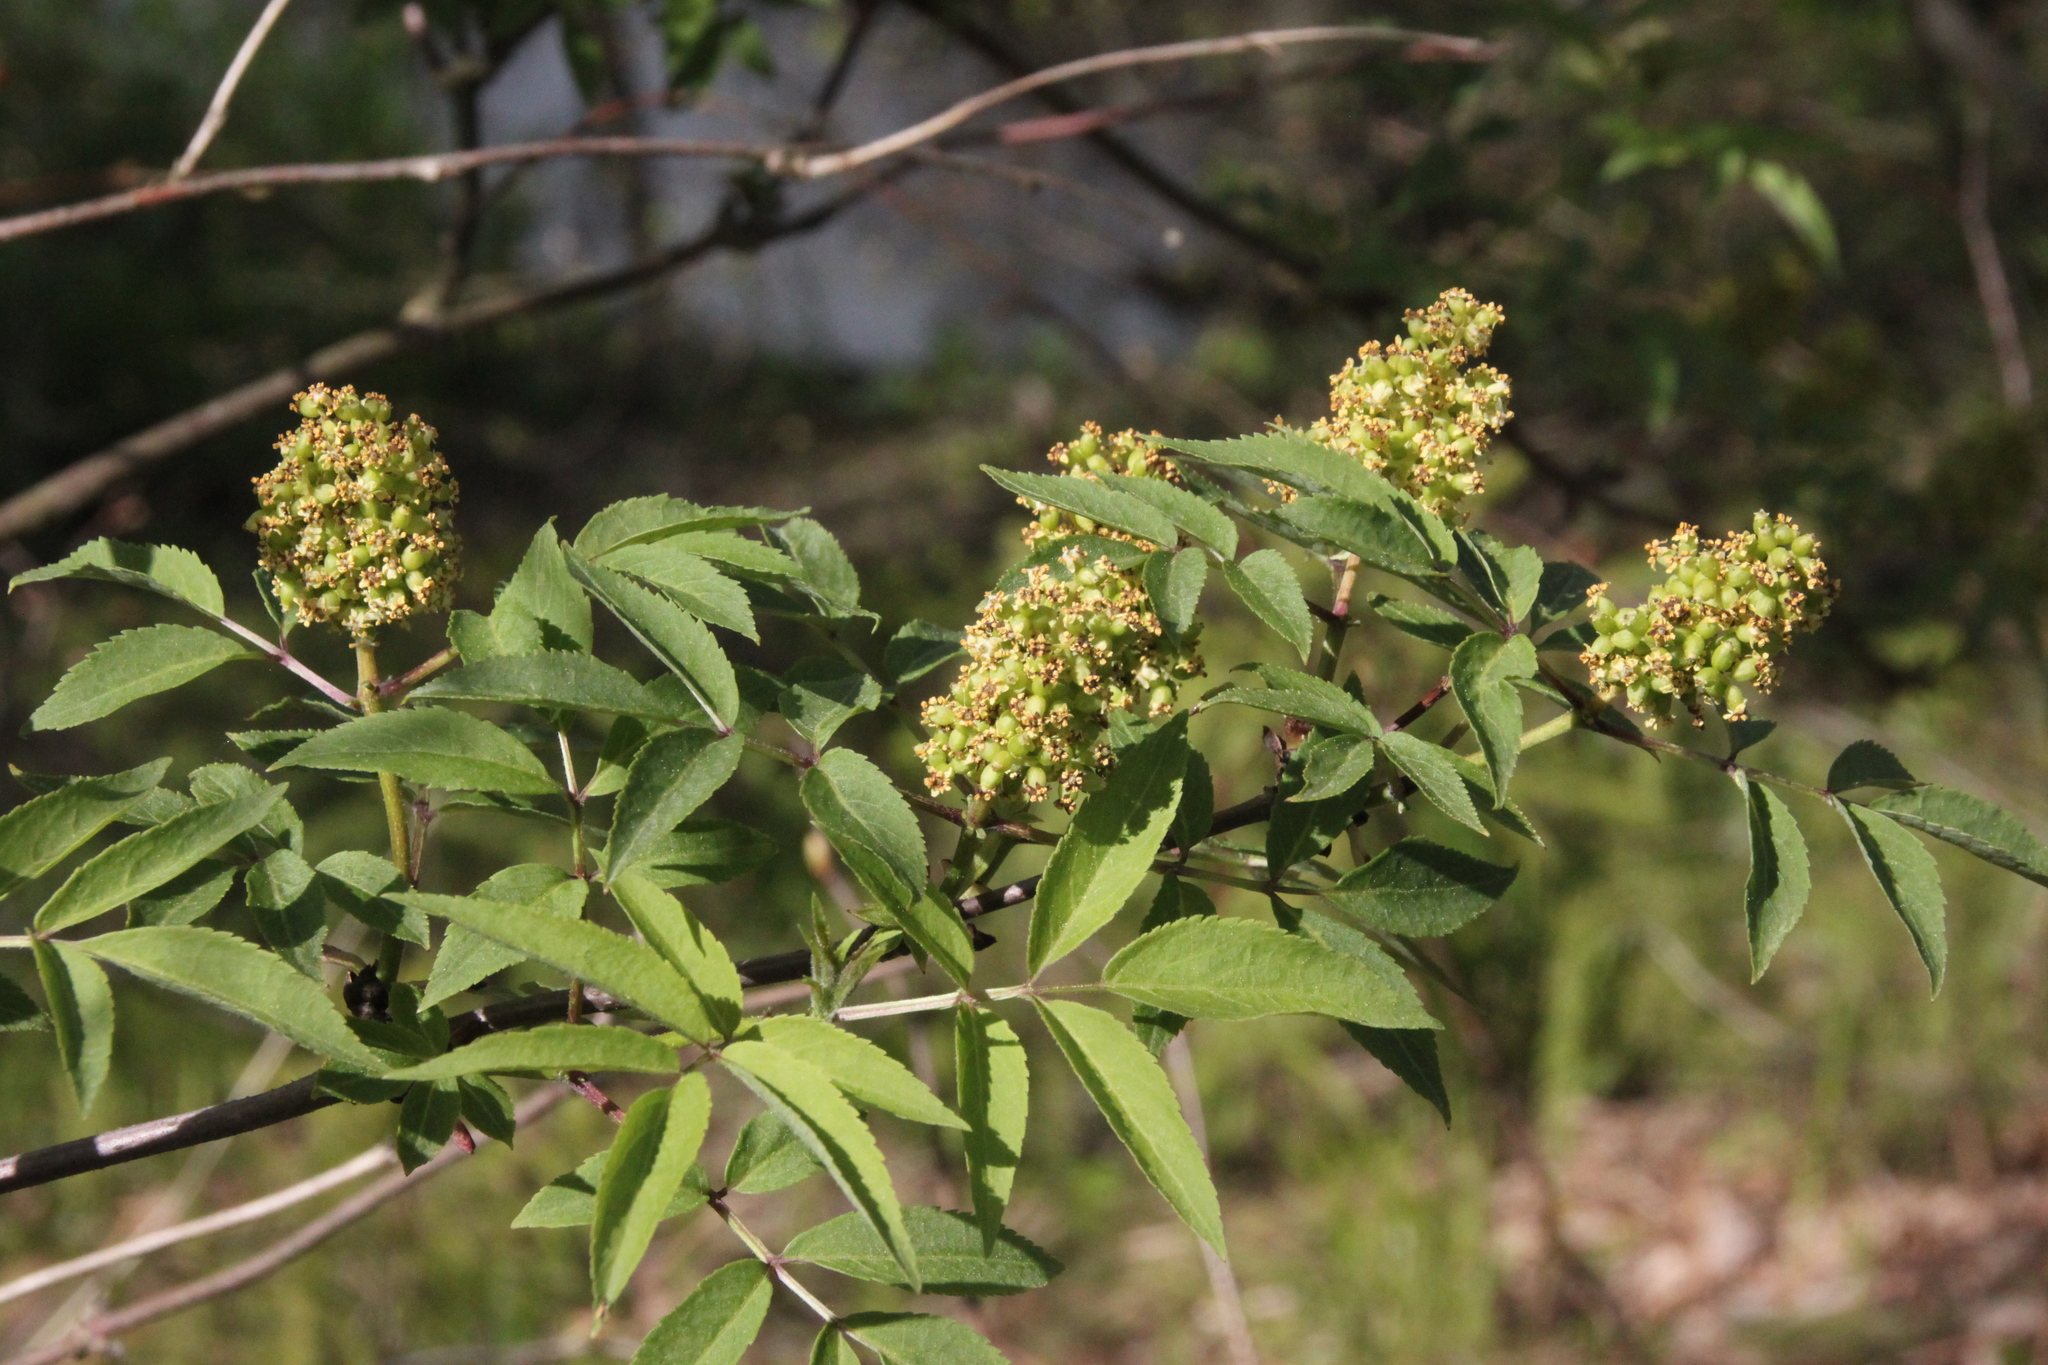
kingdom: Plantae
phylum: Tracheophyta
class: Magnoliopsida
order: Dipsacales
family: Viburnaceae
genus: Sambucus
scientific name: Sambucus racemosa
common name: Red-berried elder
